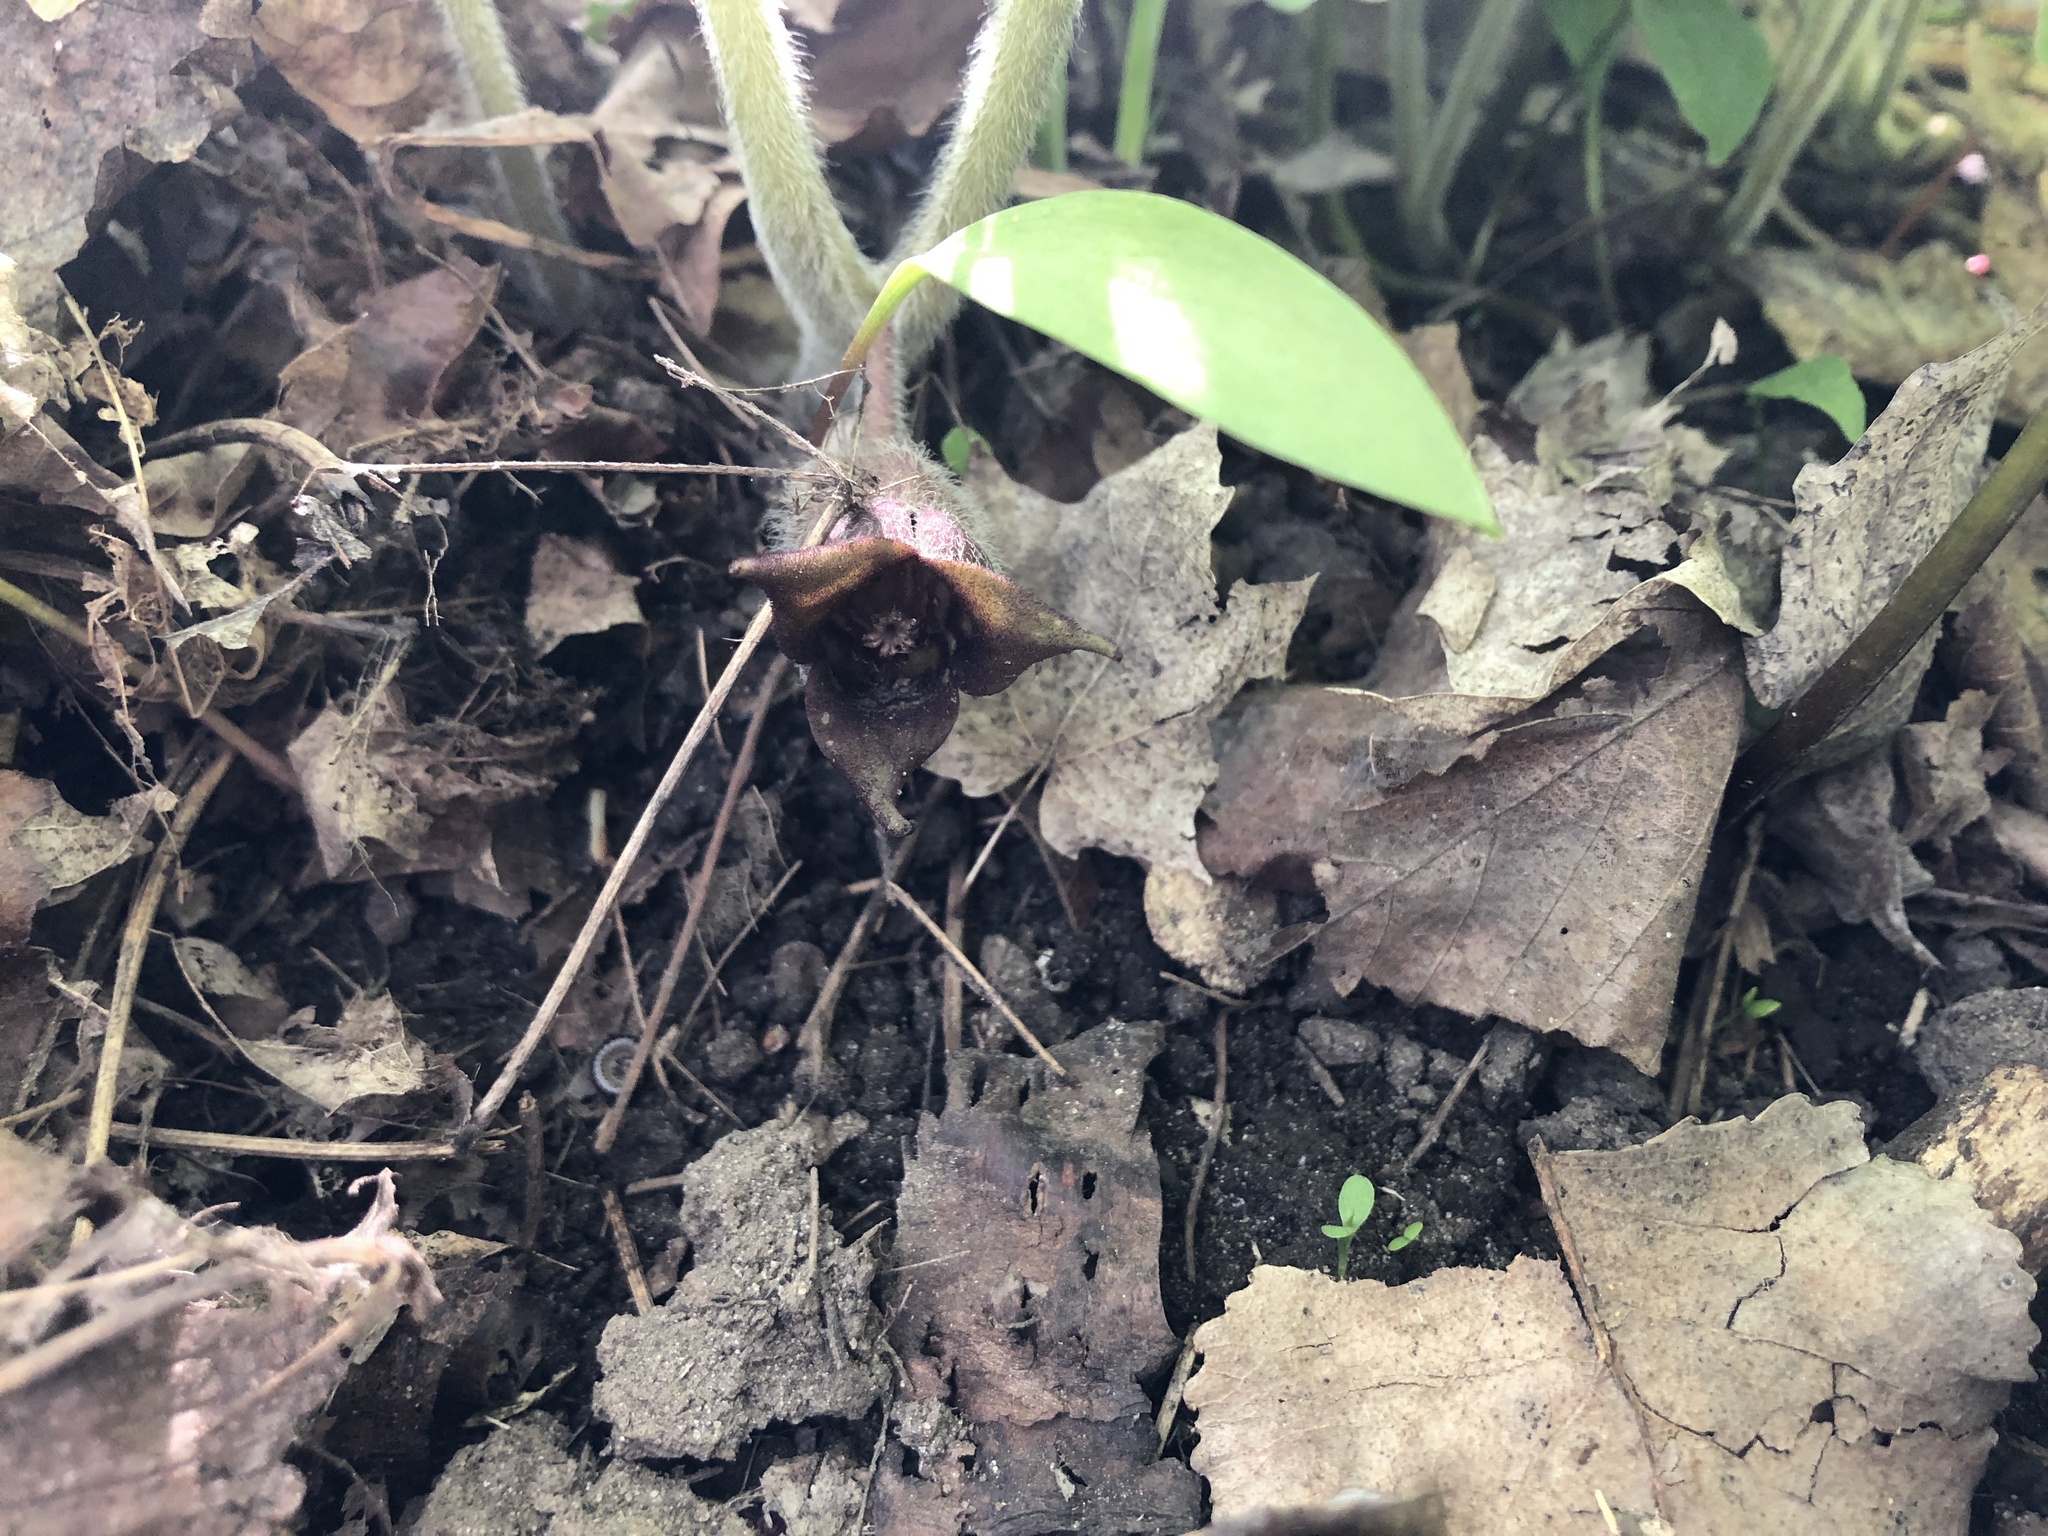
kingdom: Plantae
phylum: Tracheophyta
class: Magnoliopsida
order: Piperales
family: Aristolochiaceae
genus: Asarum
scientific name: Asarum canadense
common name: Wild ginger
